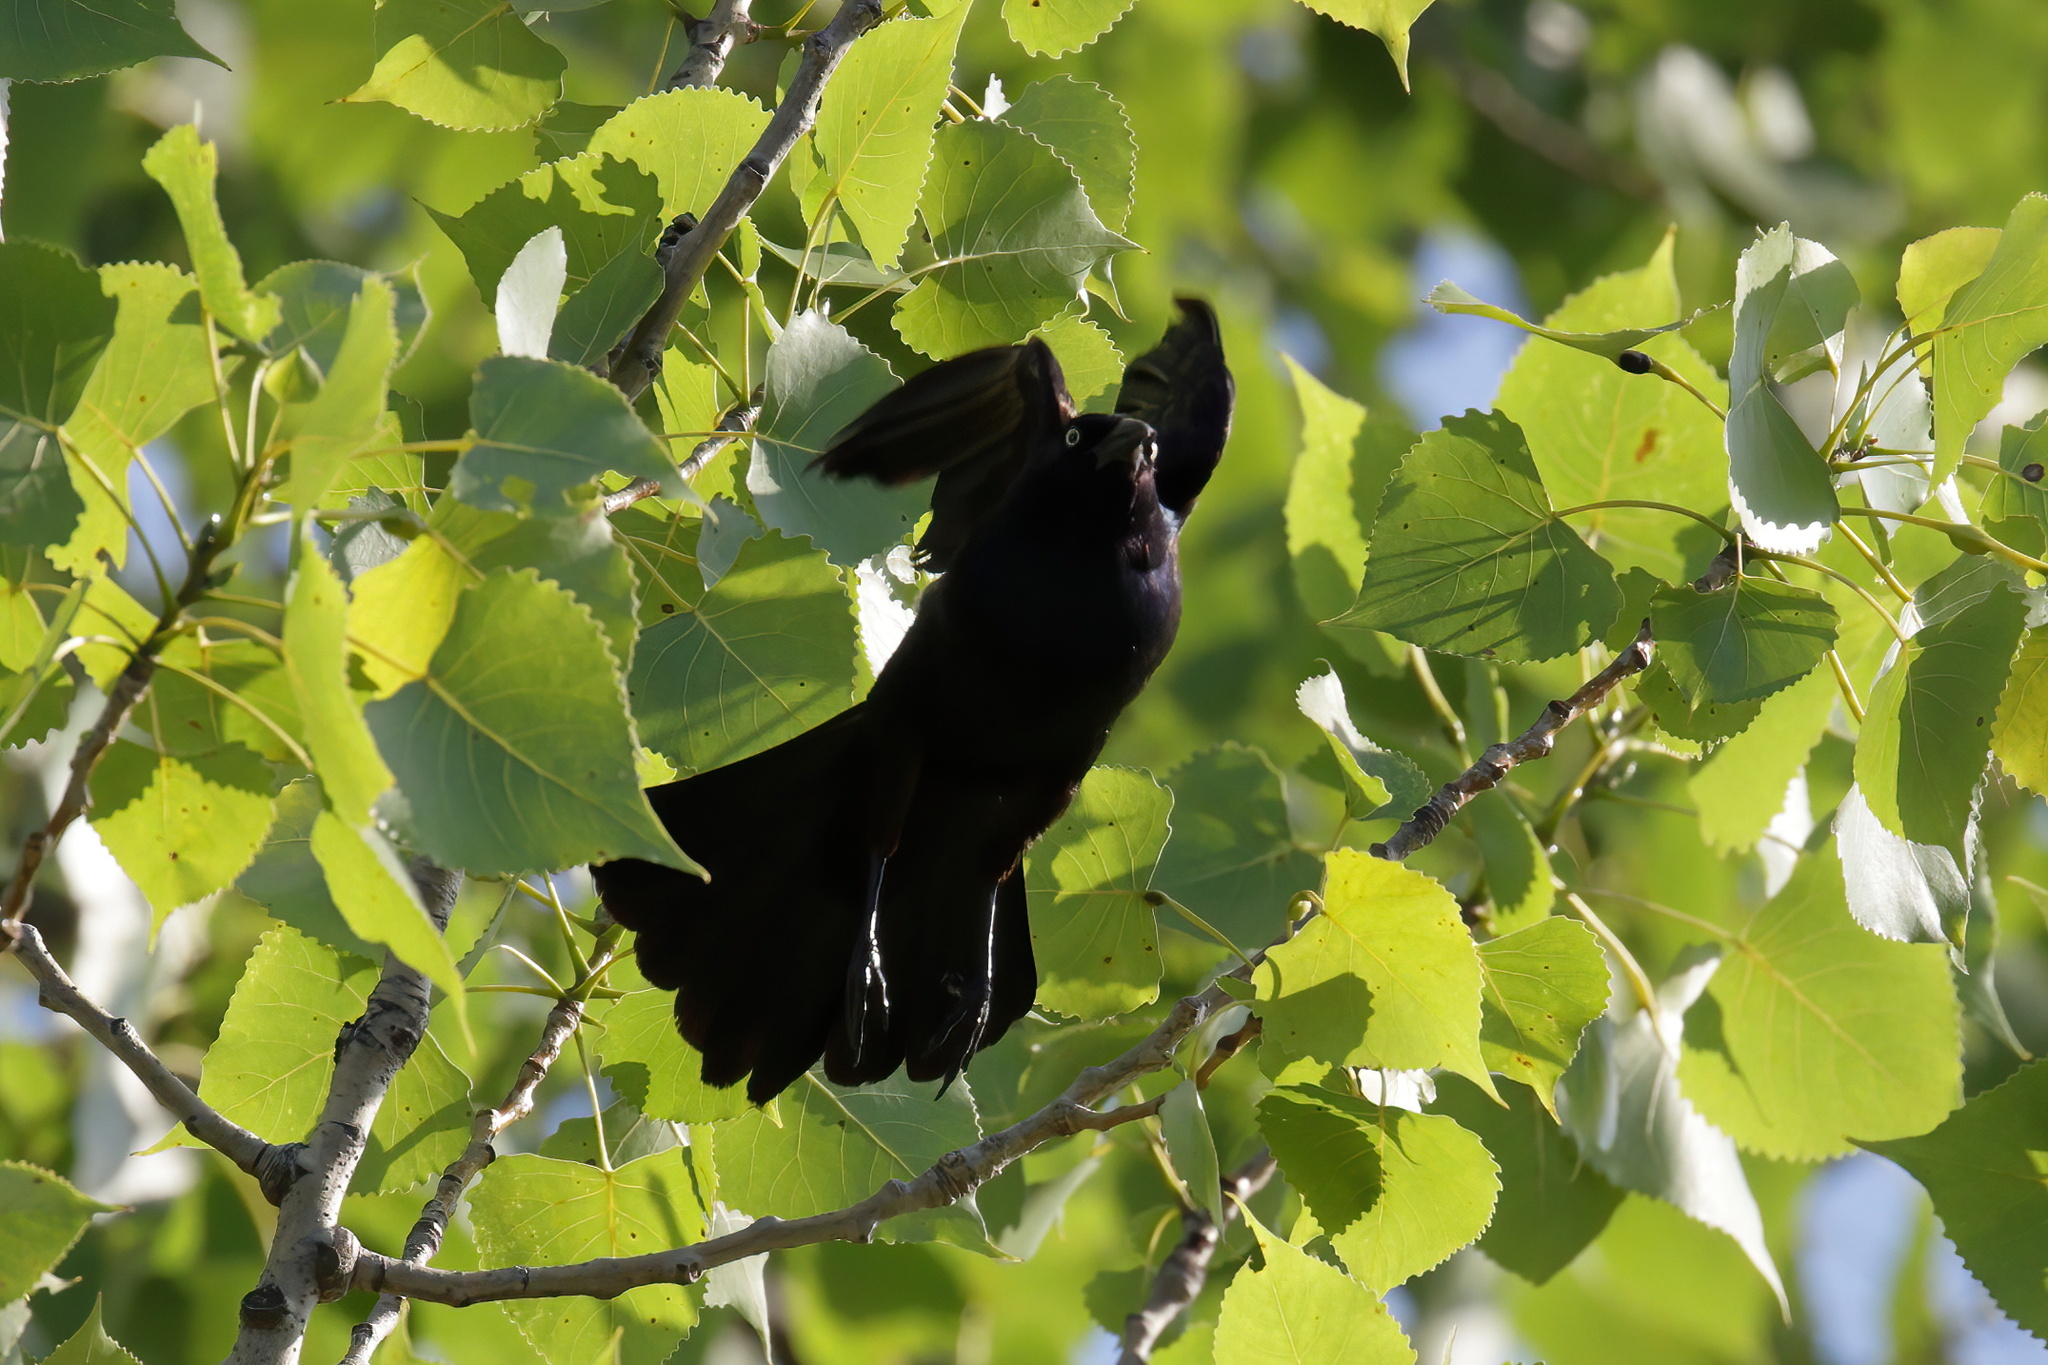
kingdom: Animalia
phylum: Chordata
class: Aves
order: Passeriformes
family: Icteridae
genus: Quiscalus
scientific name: Quiscalus quiscula
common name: Common grackle
